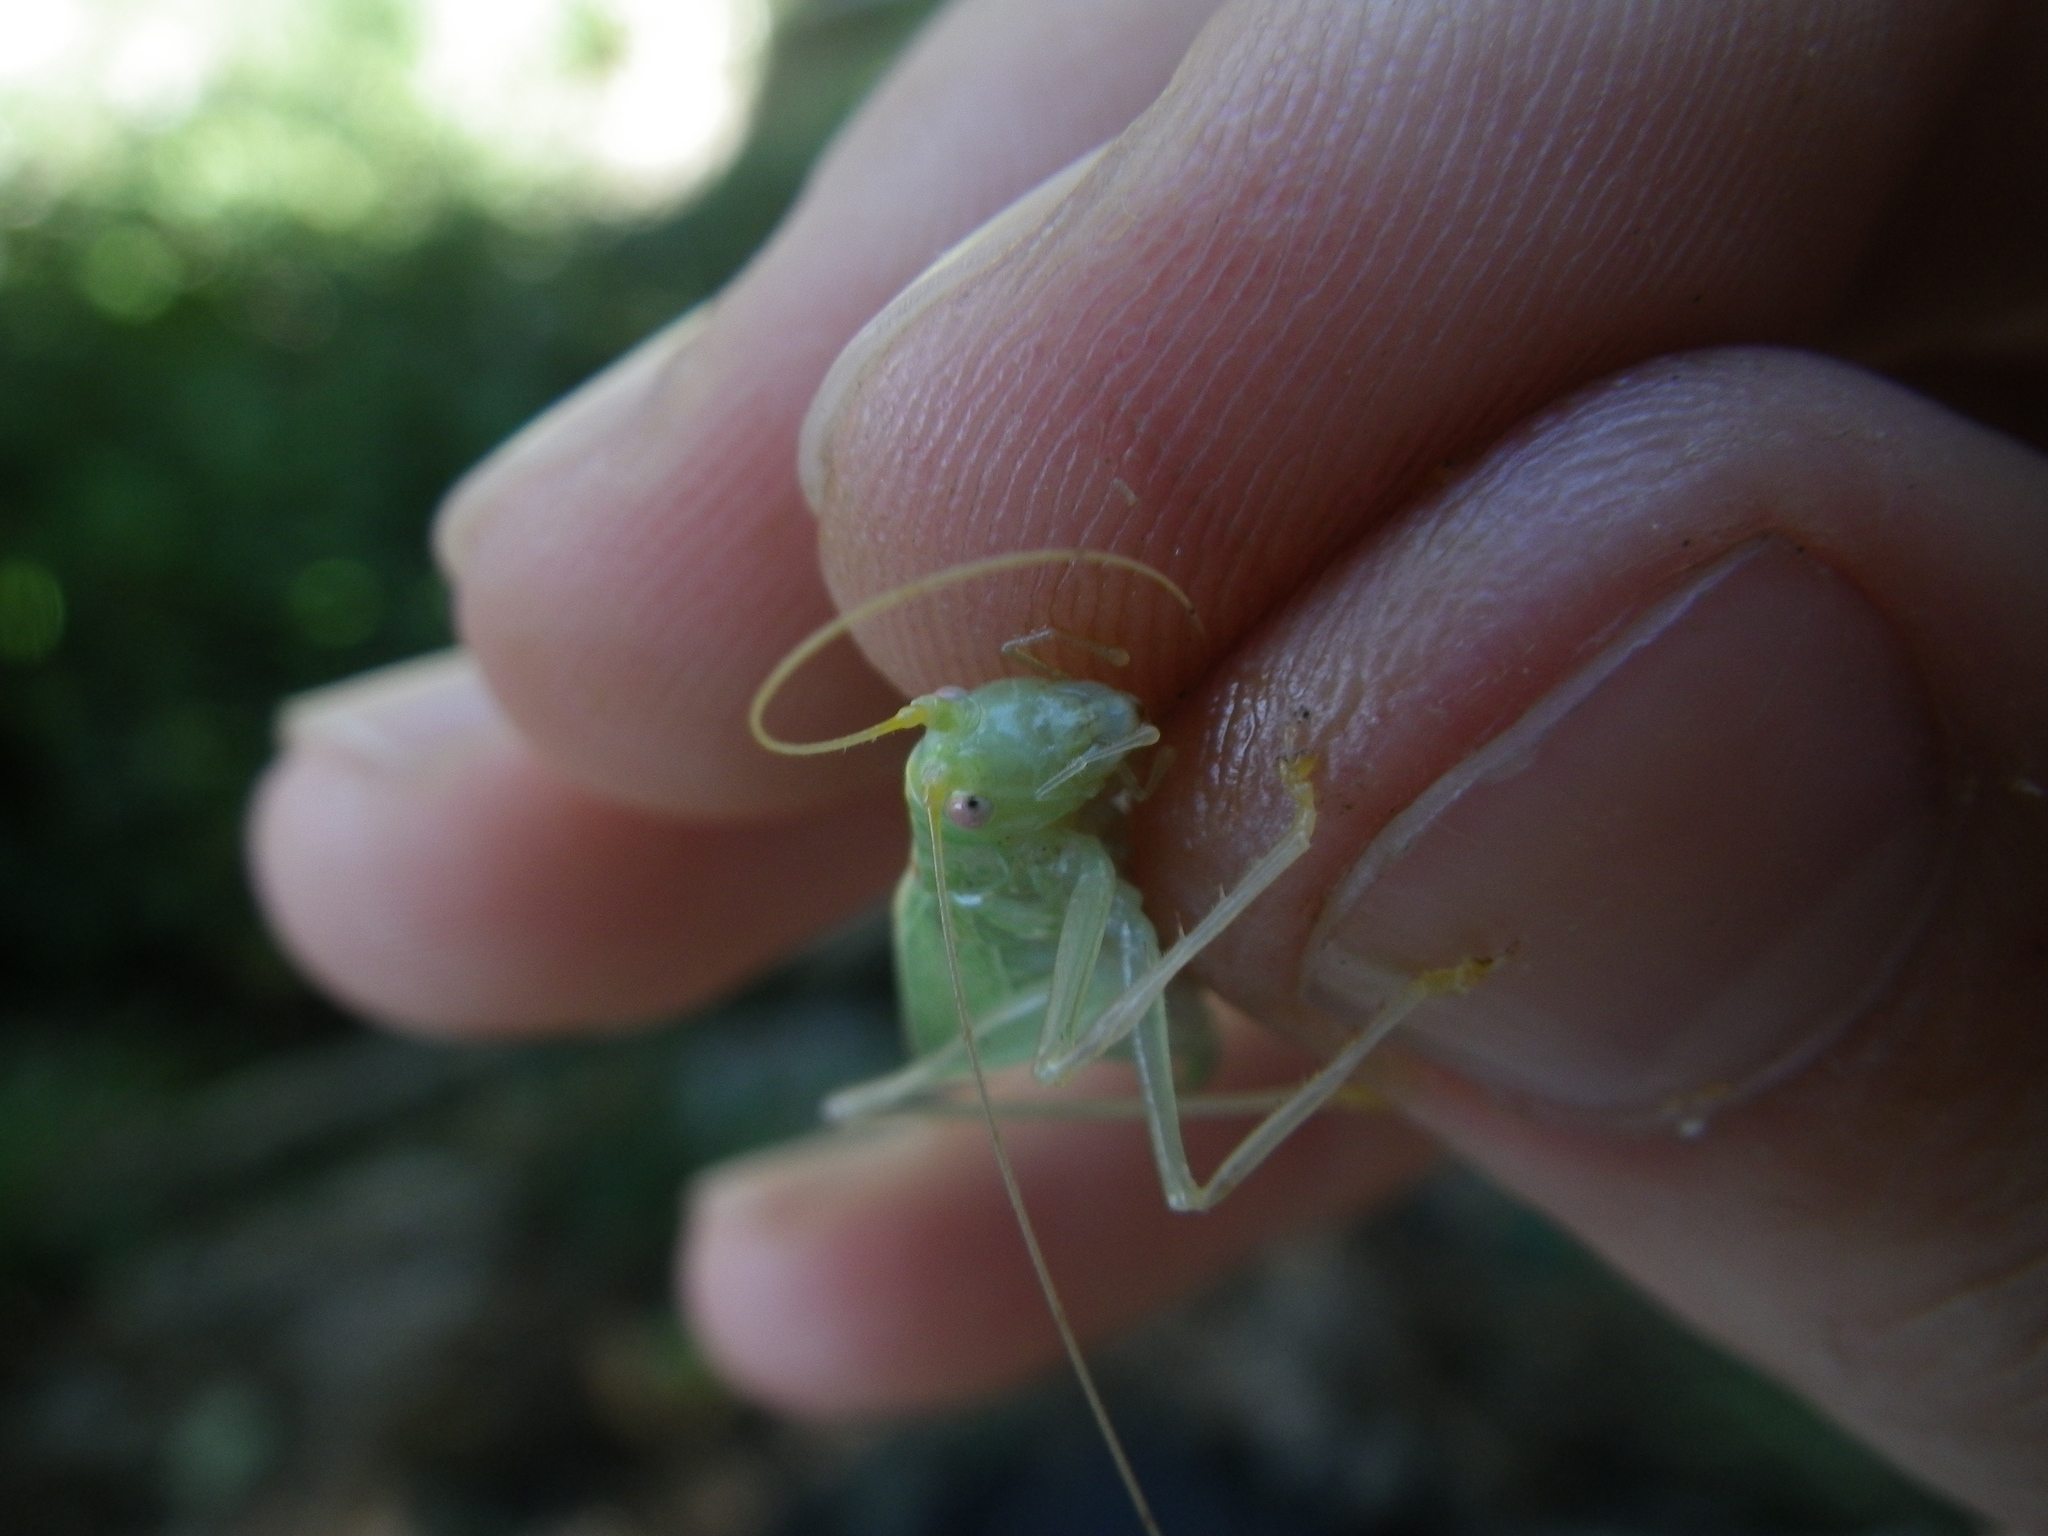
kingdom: Animalia
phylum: Arthropoda
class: Insecta
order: Orthoptera
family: Tettigoniidae
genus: Meconema
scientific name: Meconema thalassinum
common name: Oak bush-cricket
